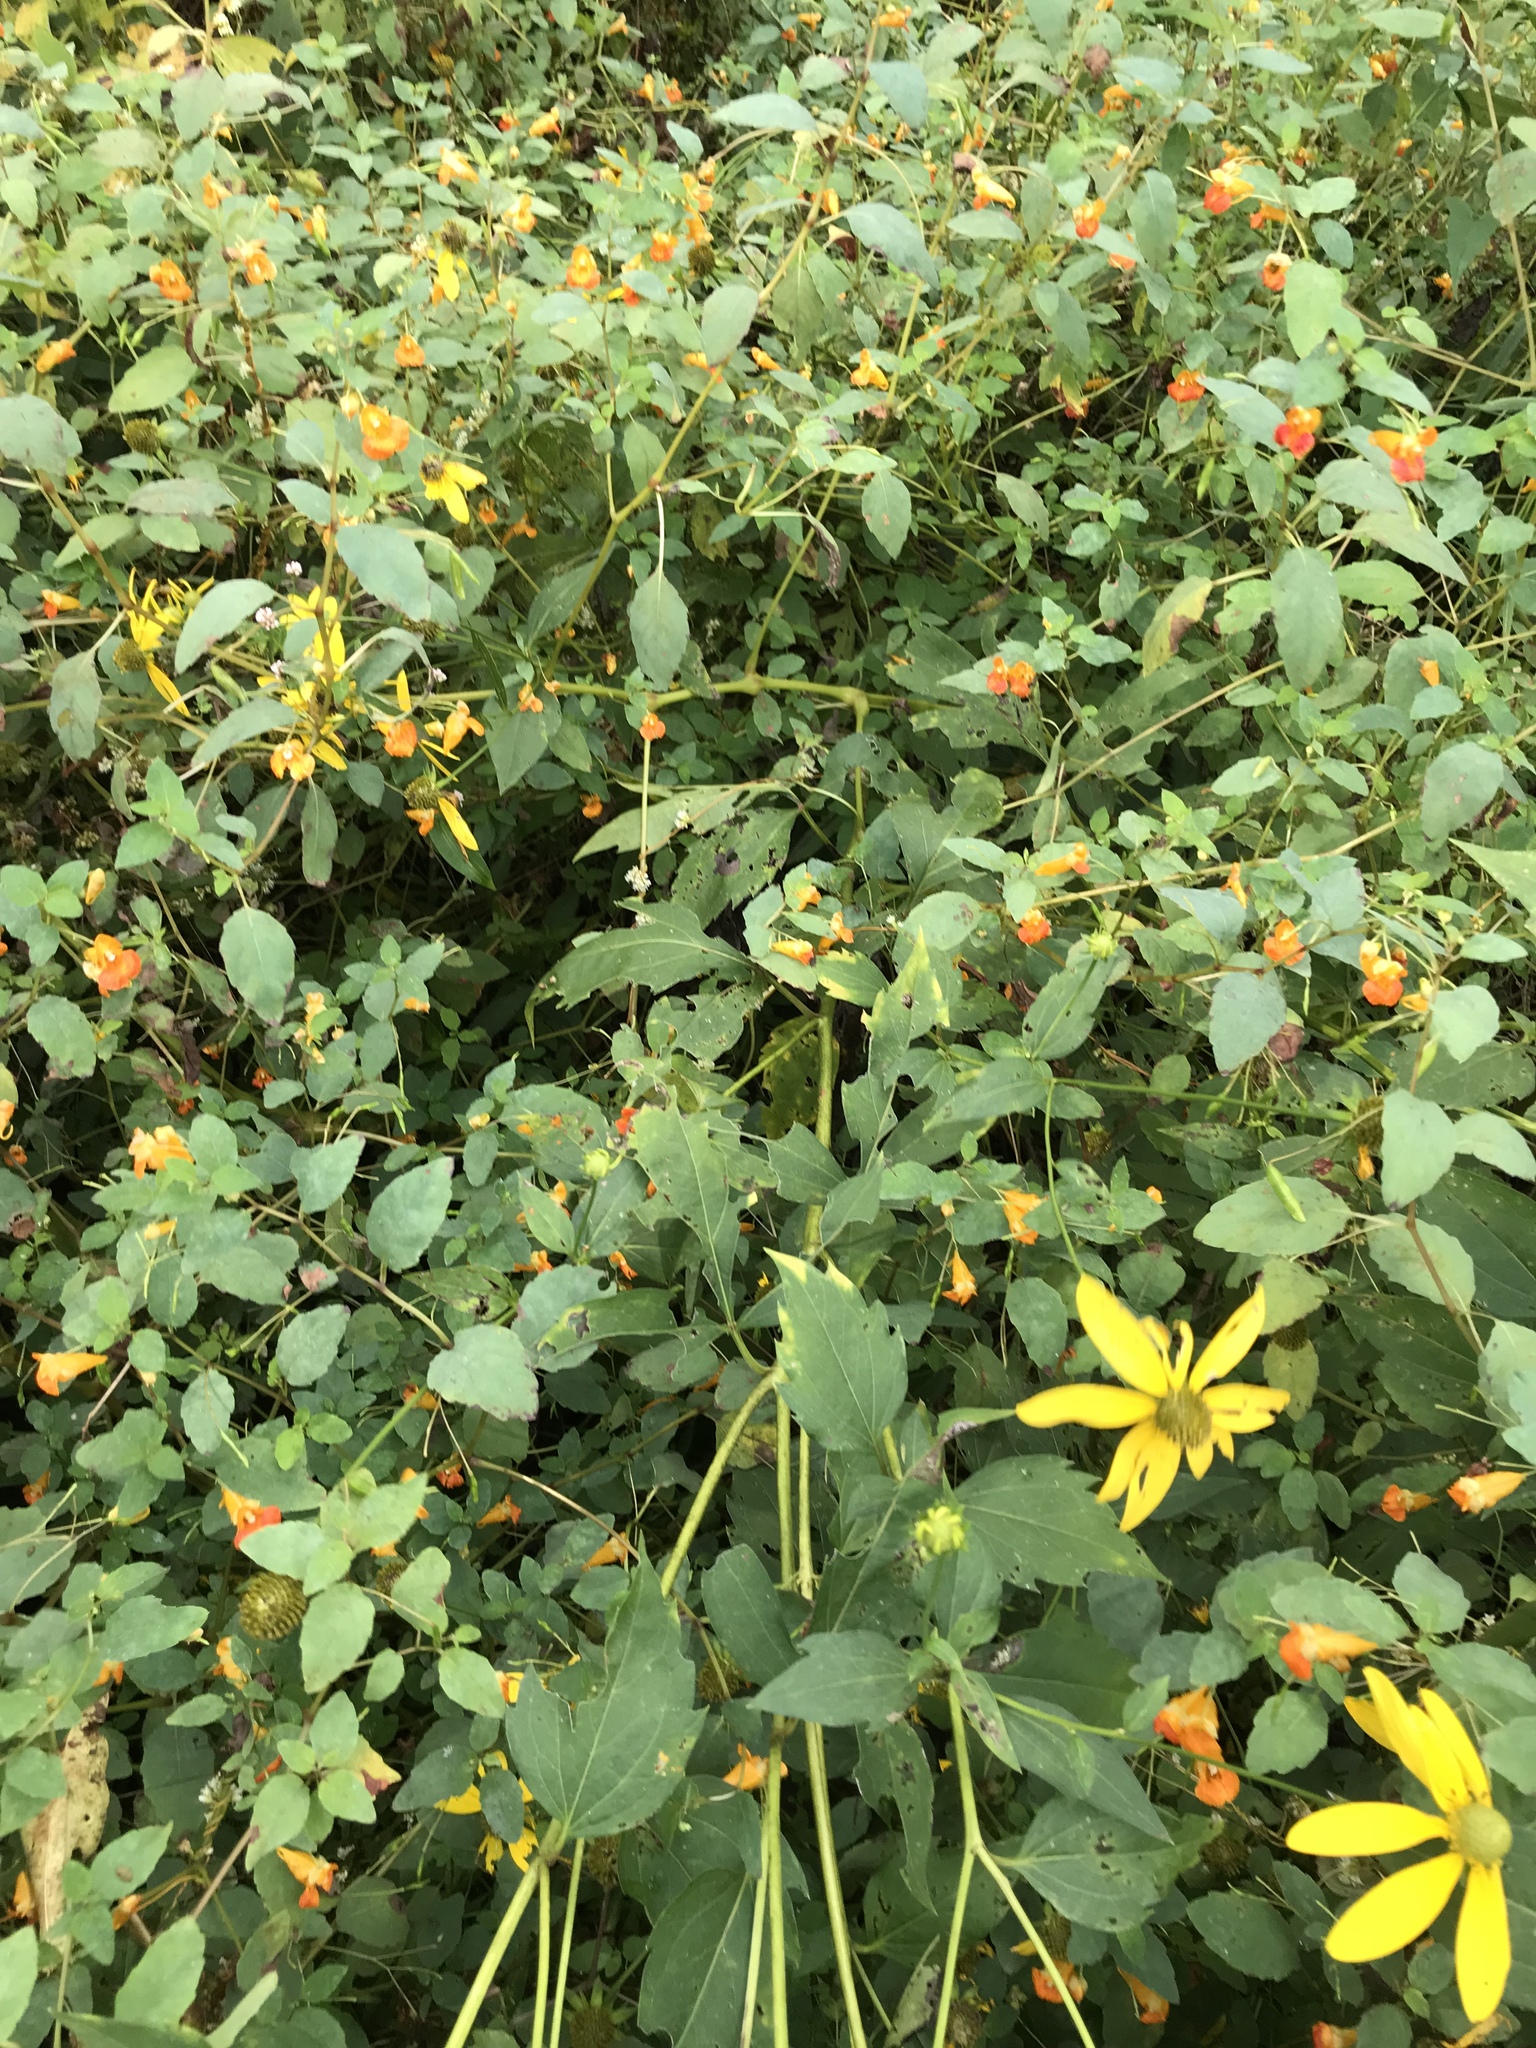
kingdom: Plantae
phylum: Tracheophyta
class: Magnoliopsida
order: Asterales
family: Asteraceae
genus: Rudbeckia
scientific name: Rudbeckia laciniata
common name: Coneflower
